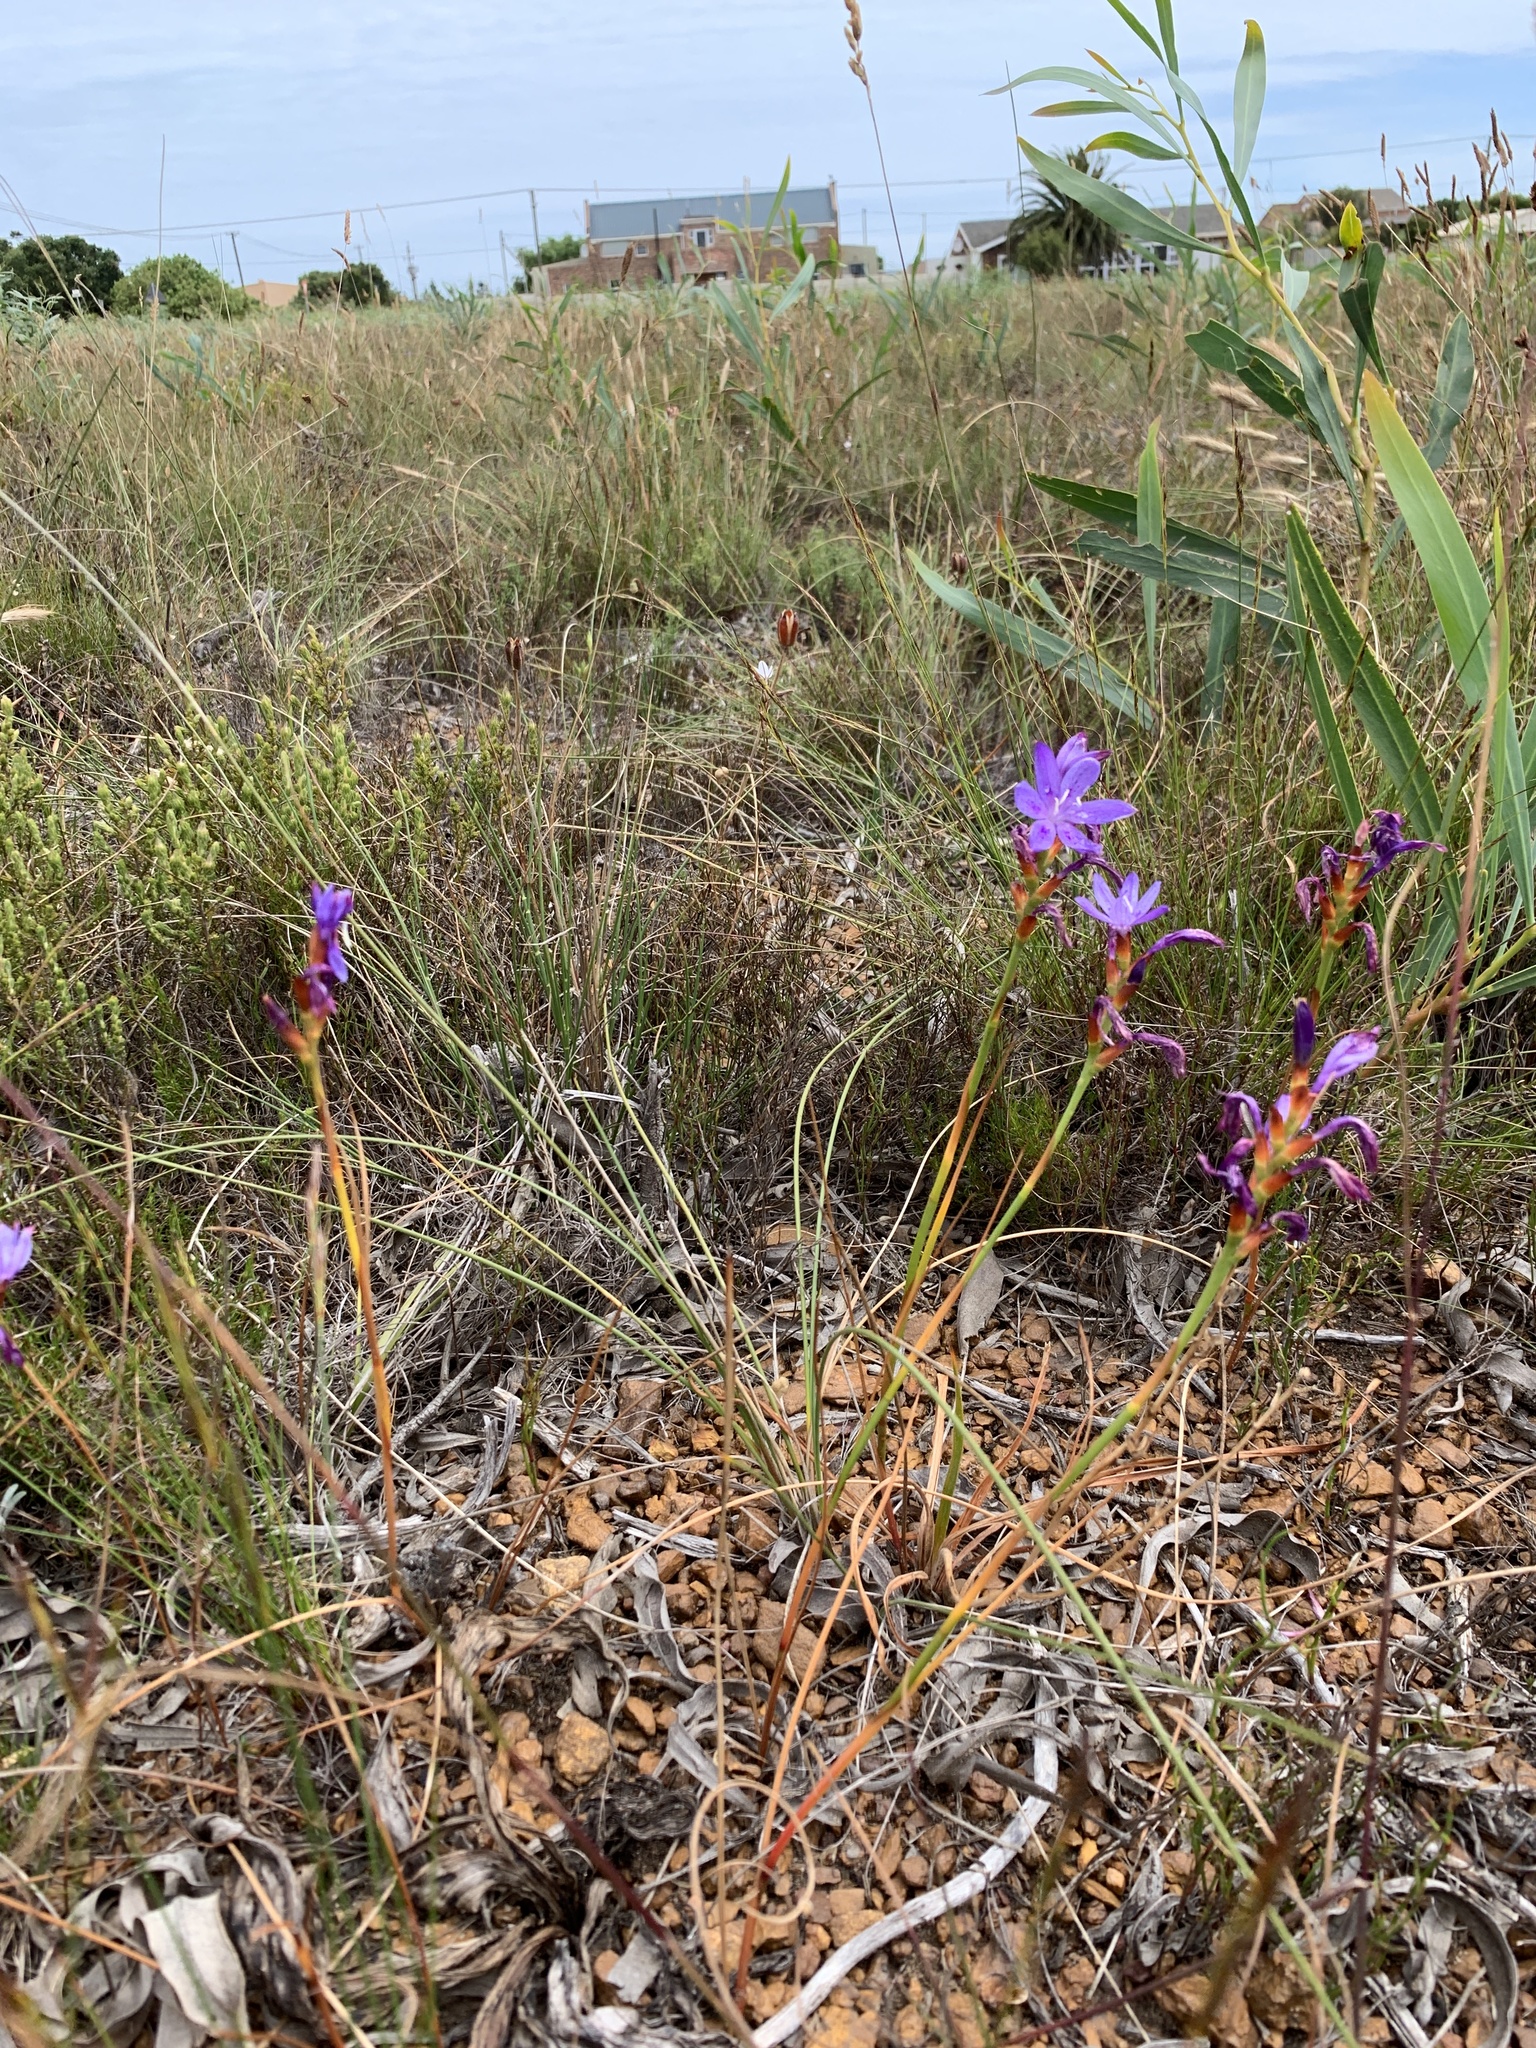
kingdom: Plantae
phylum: Tracheophyta
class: Liliopsida
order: Asparagales
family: Iridaceae
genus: Thereianthus
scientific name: Thereianthus bracteolatus
